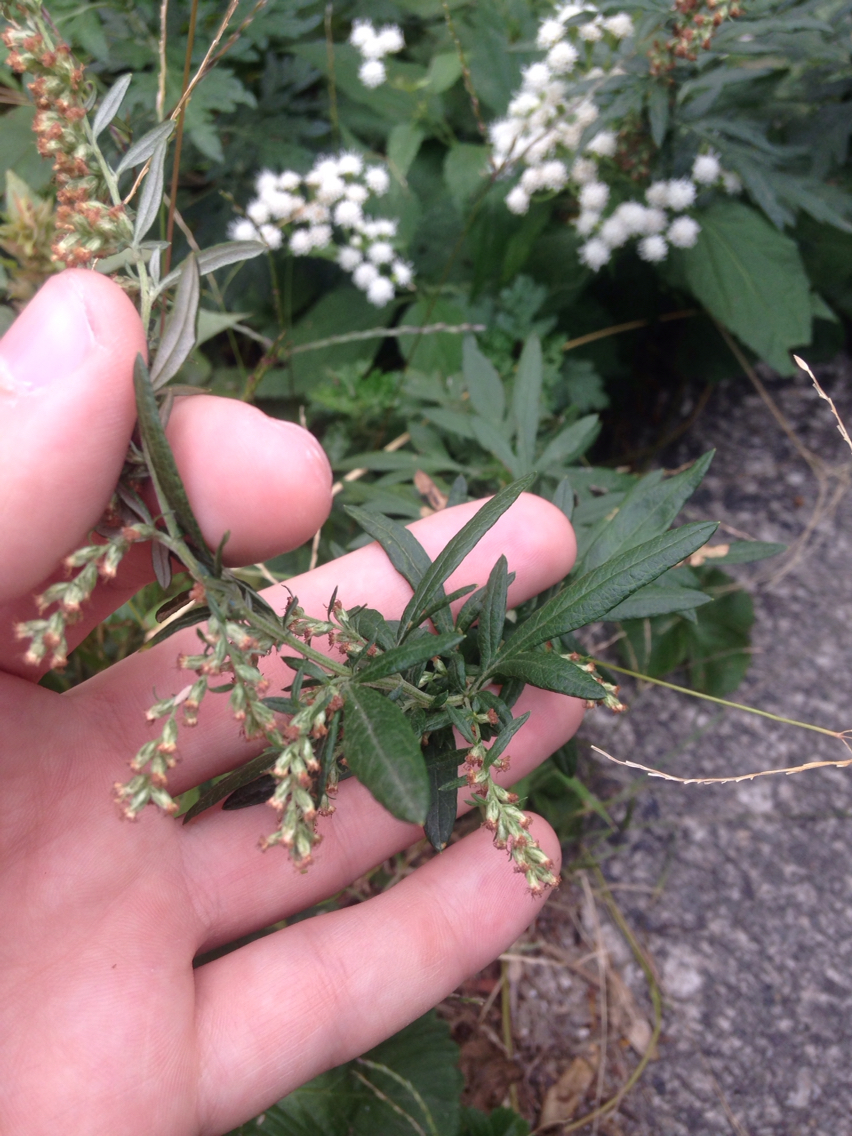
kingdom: Plantae
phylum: Tracheophyta
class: Magnoliopsida
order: Asterales
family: Asteraceae
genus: Artemisia
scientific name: Artemisia vulgaris
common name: Mugwort
